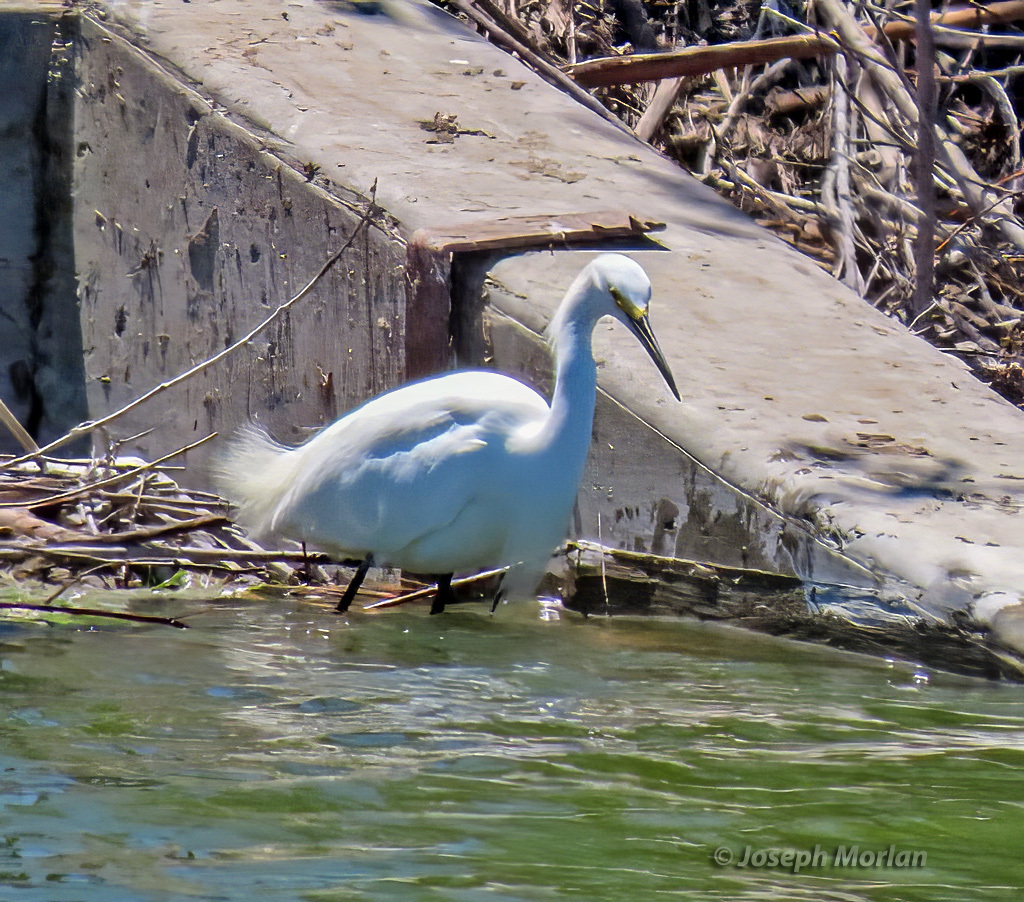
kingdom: Animalia
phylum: Chordata
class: Aves
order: Pelecaniformes
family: Ardeidae
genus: Egretta
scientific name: Egretta thula
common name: Snowy egret
